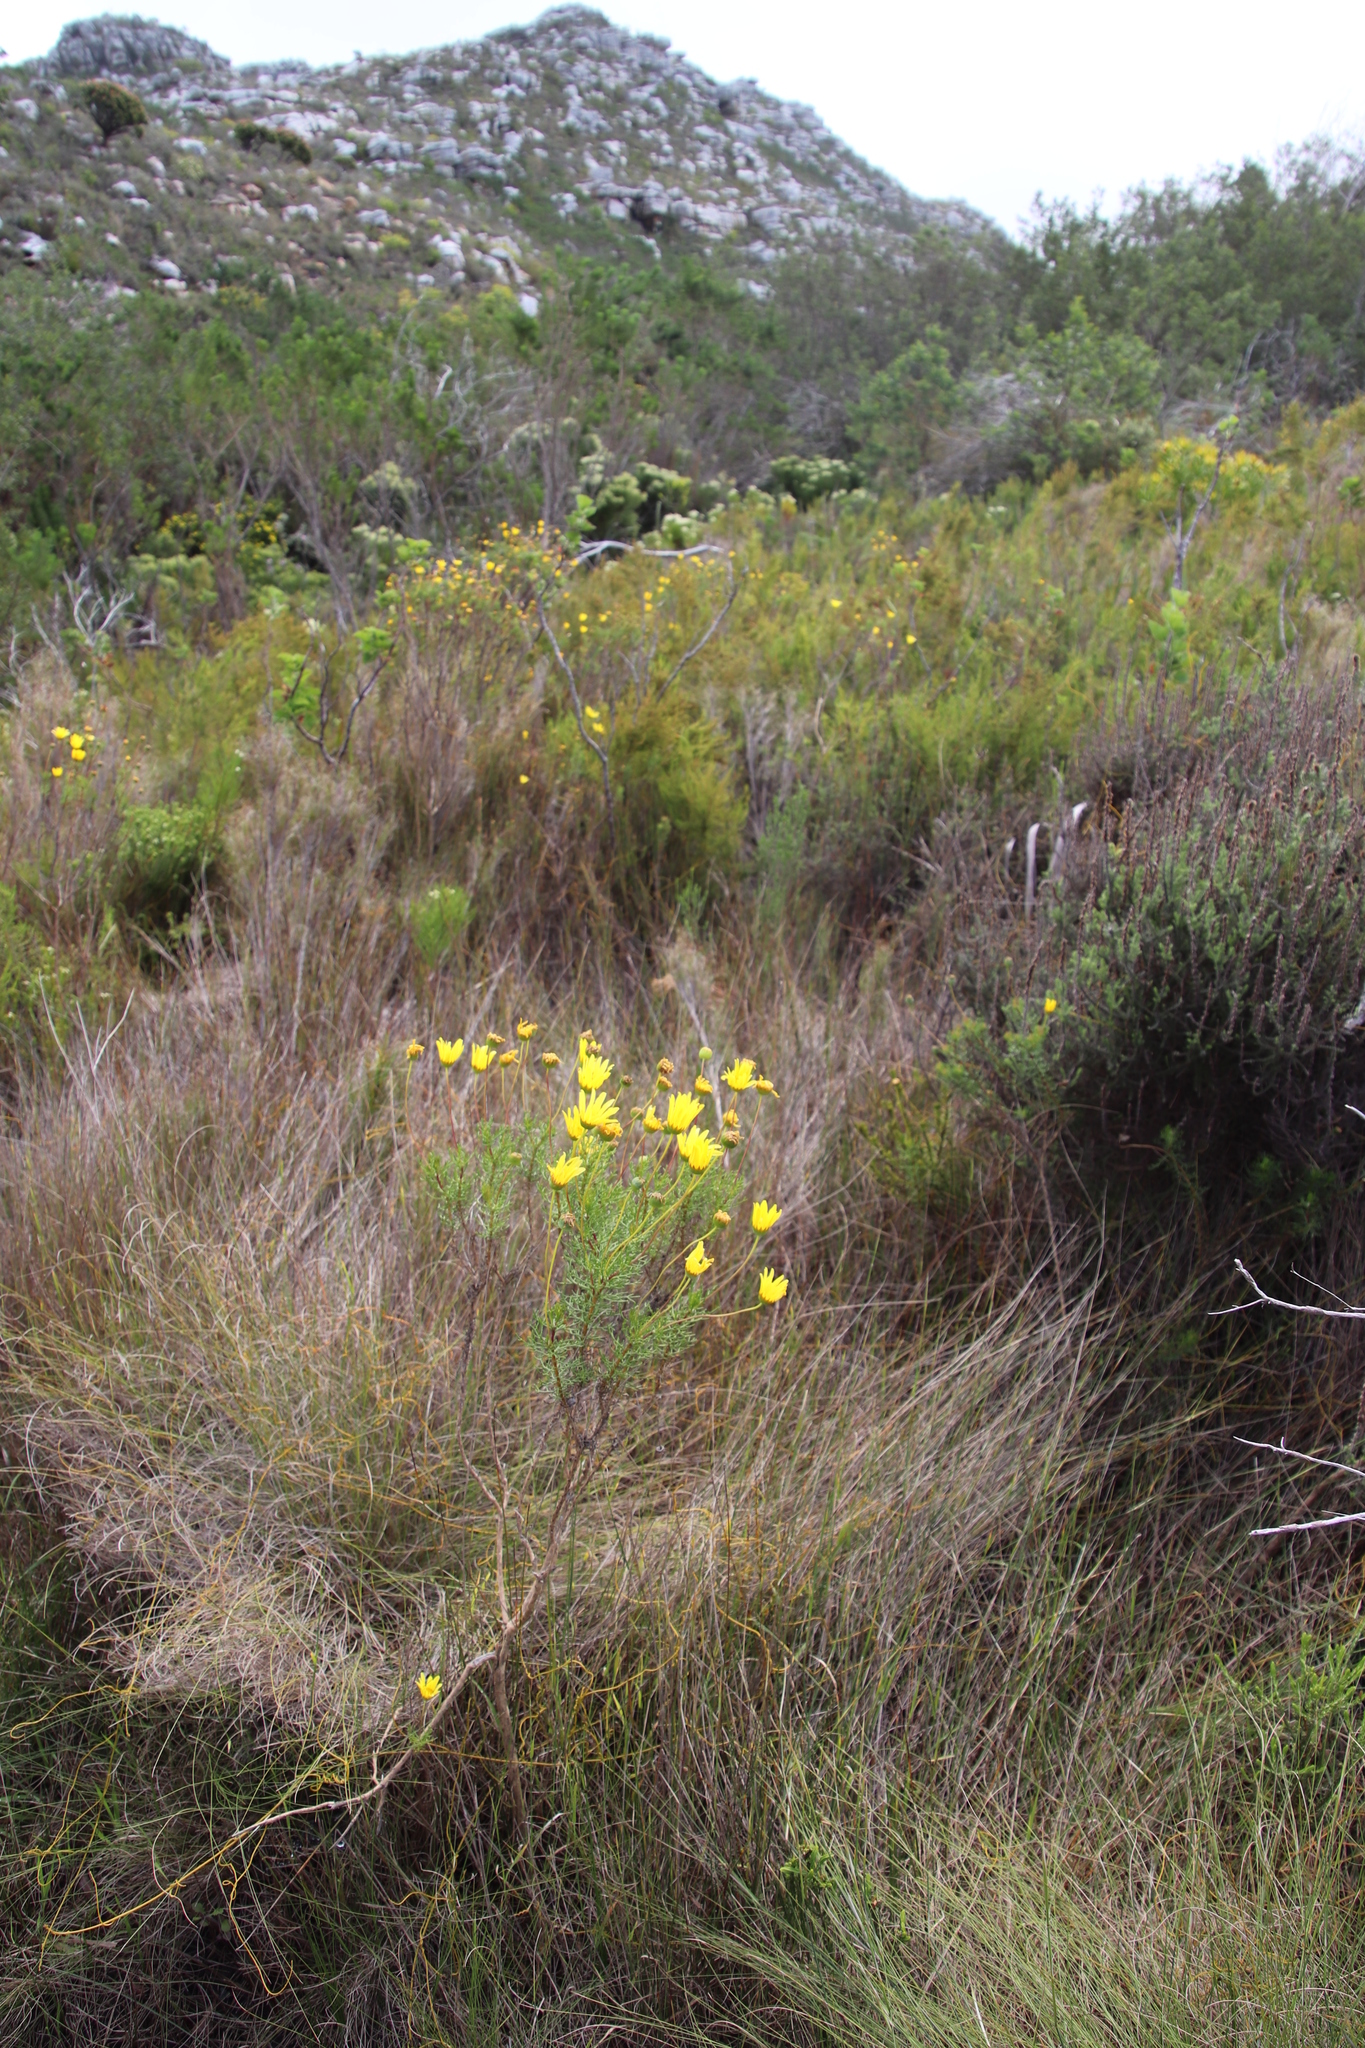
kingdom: Plantae
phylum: Tracheophyta
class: Magnoliopsida
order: Asterales
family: Asteraceae
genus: Euryops
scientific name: Euryops abrotanifolius
